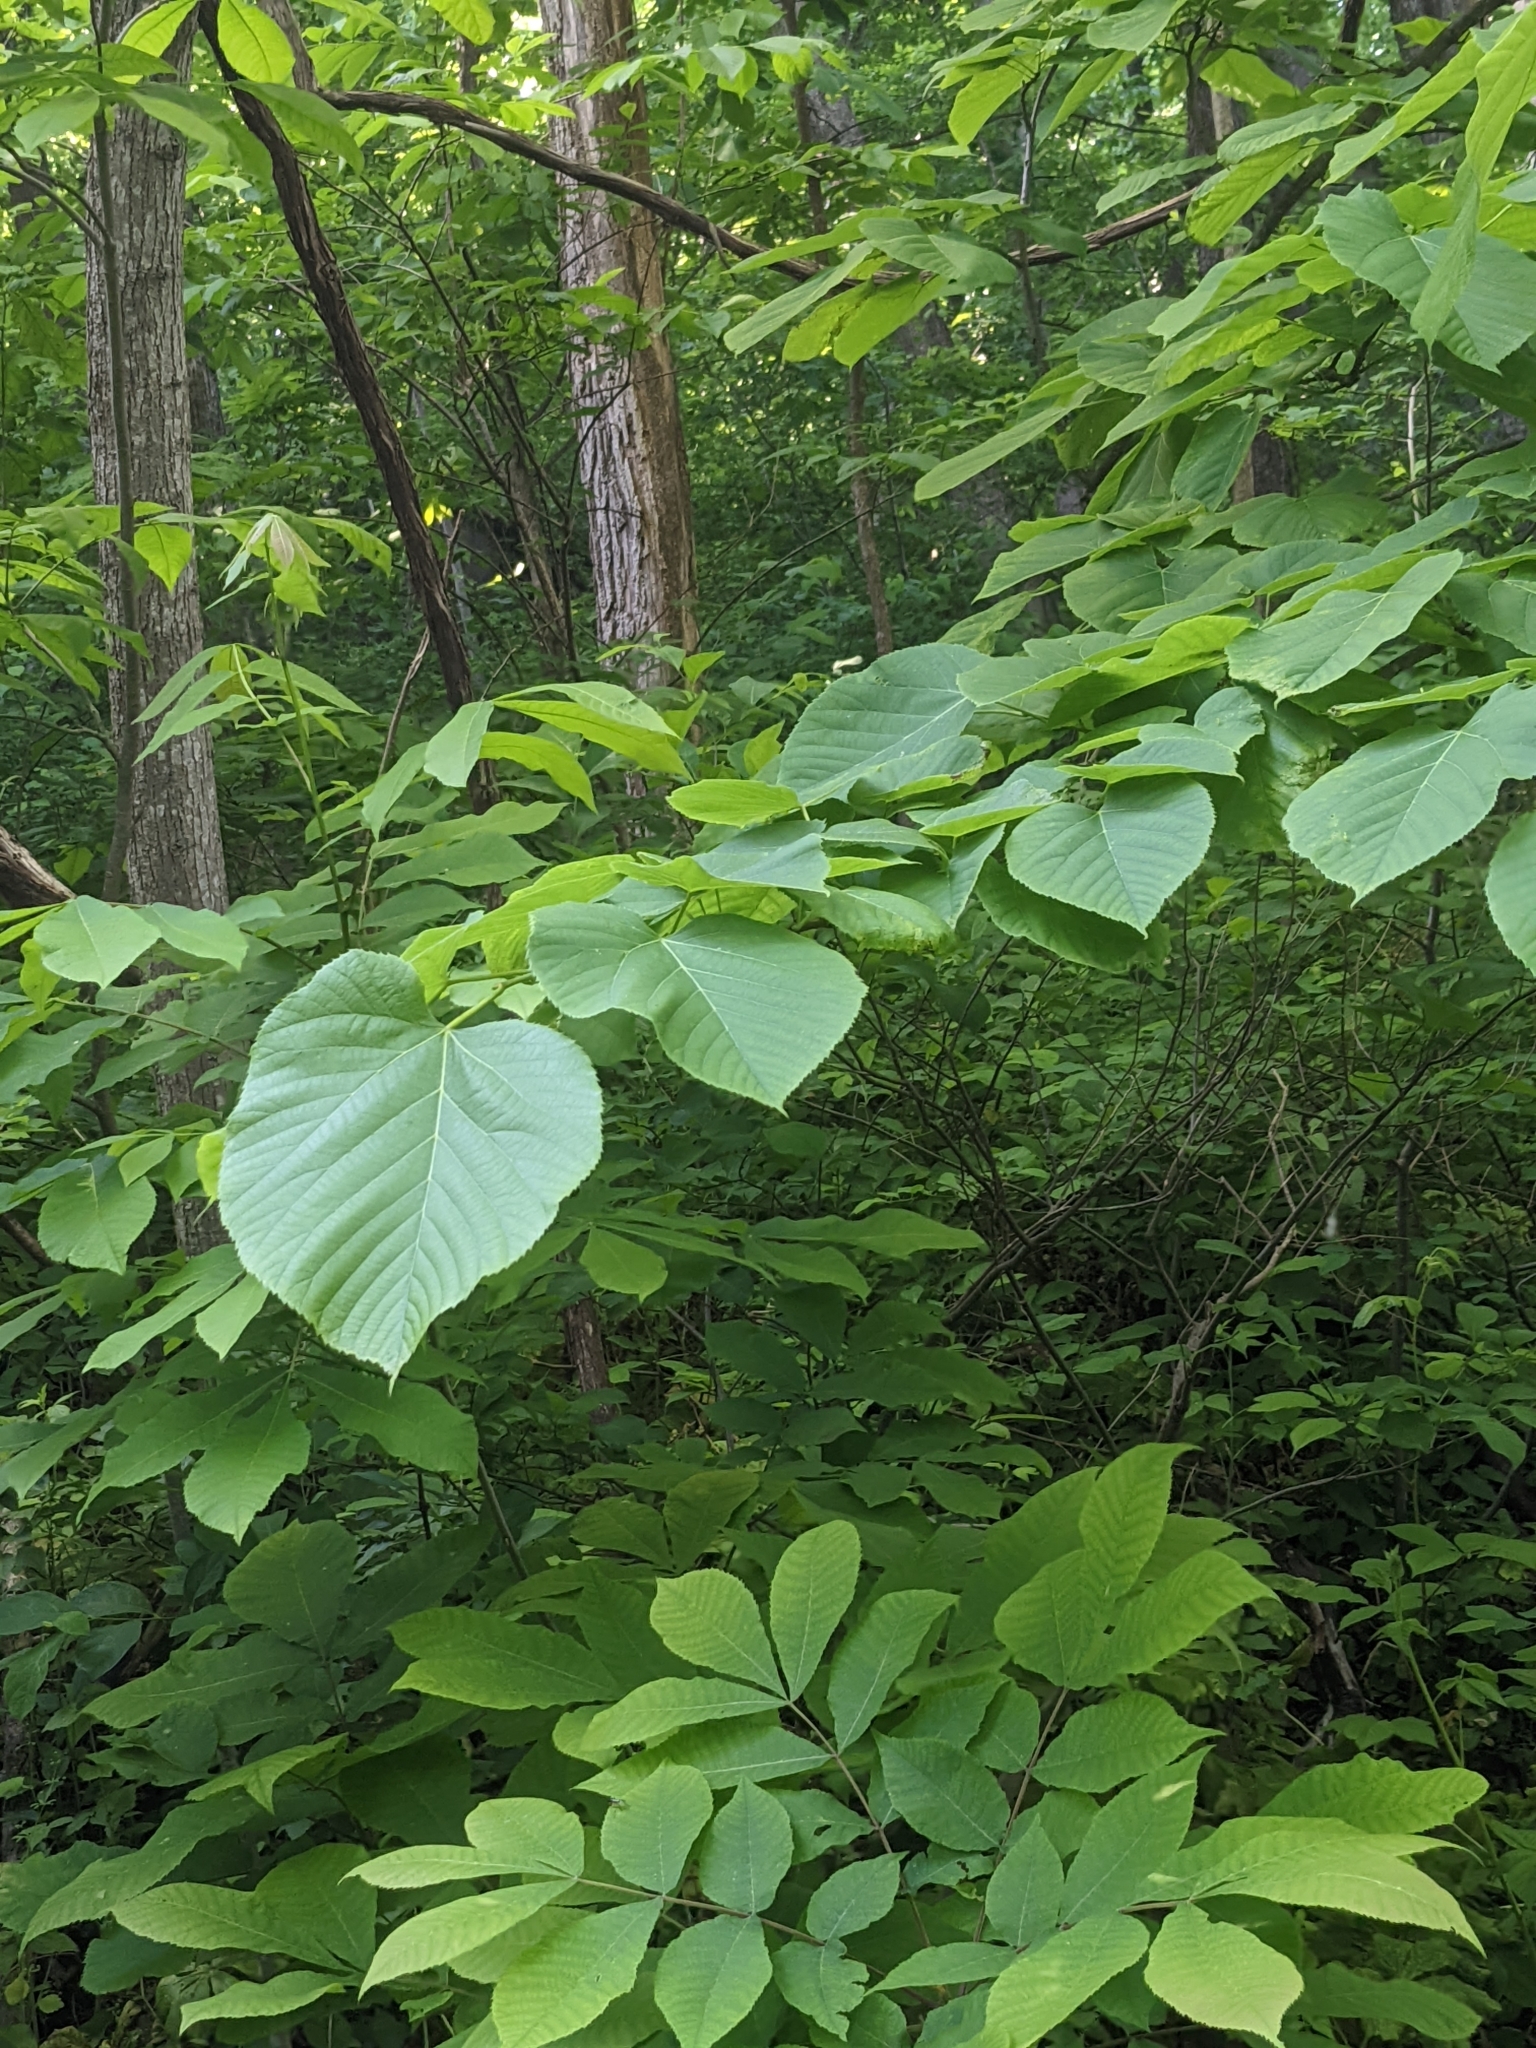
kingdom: Plantae
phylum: Tracheophyta
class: Magnoliopsida
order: Malvales
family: Malvaceae
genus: Tilia
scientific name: Tilia americana
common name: Basswood
